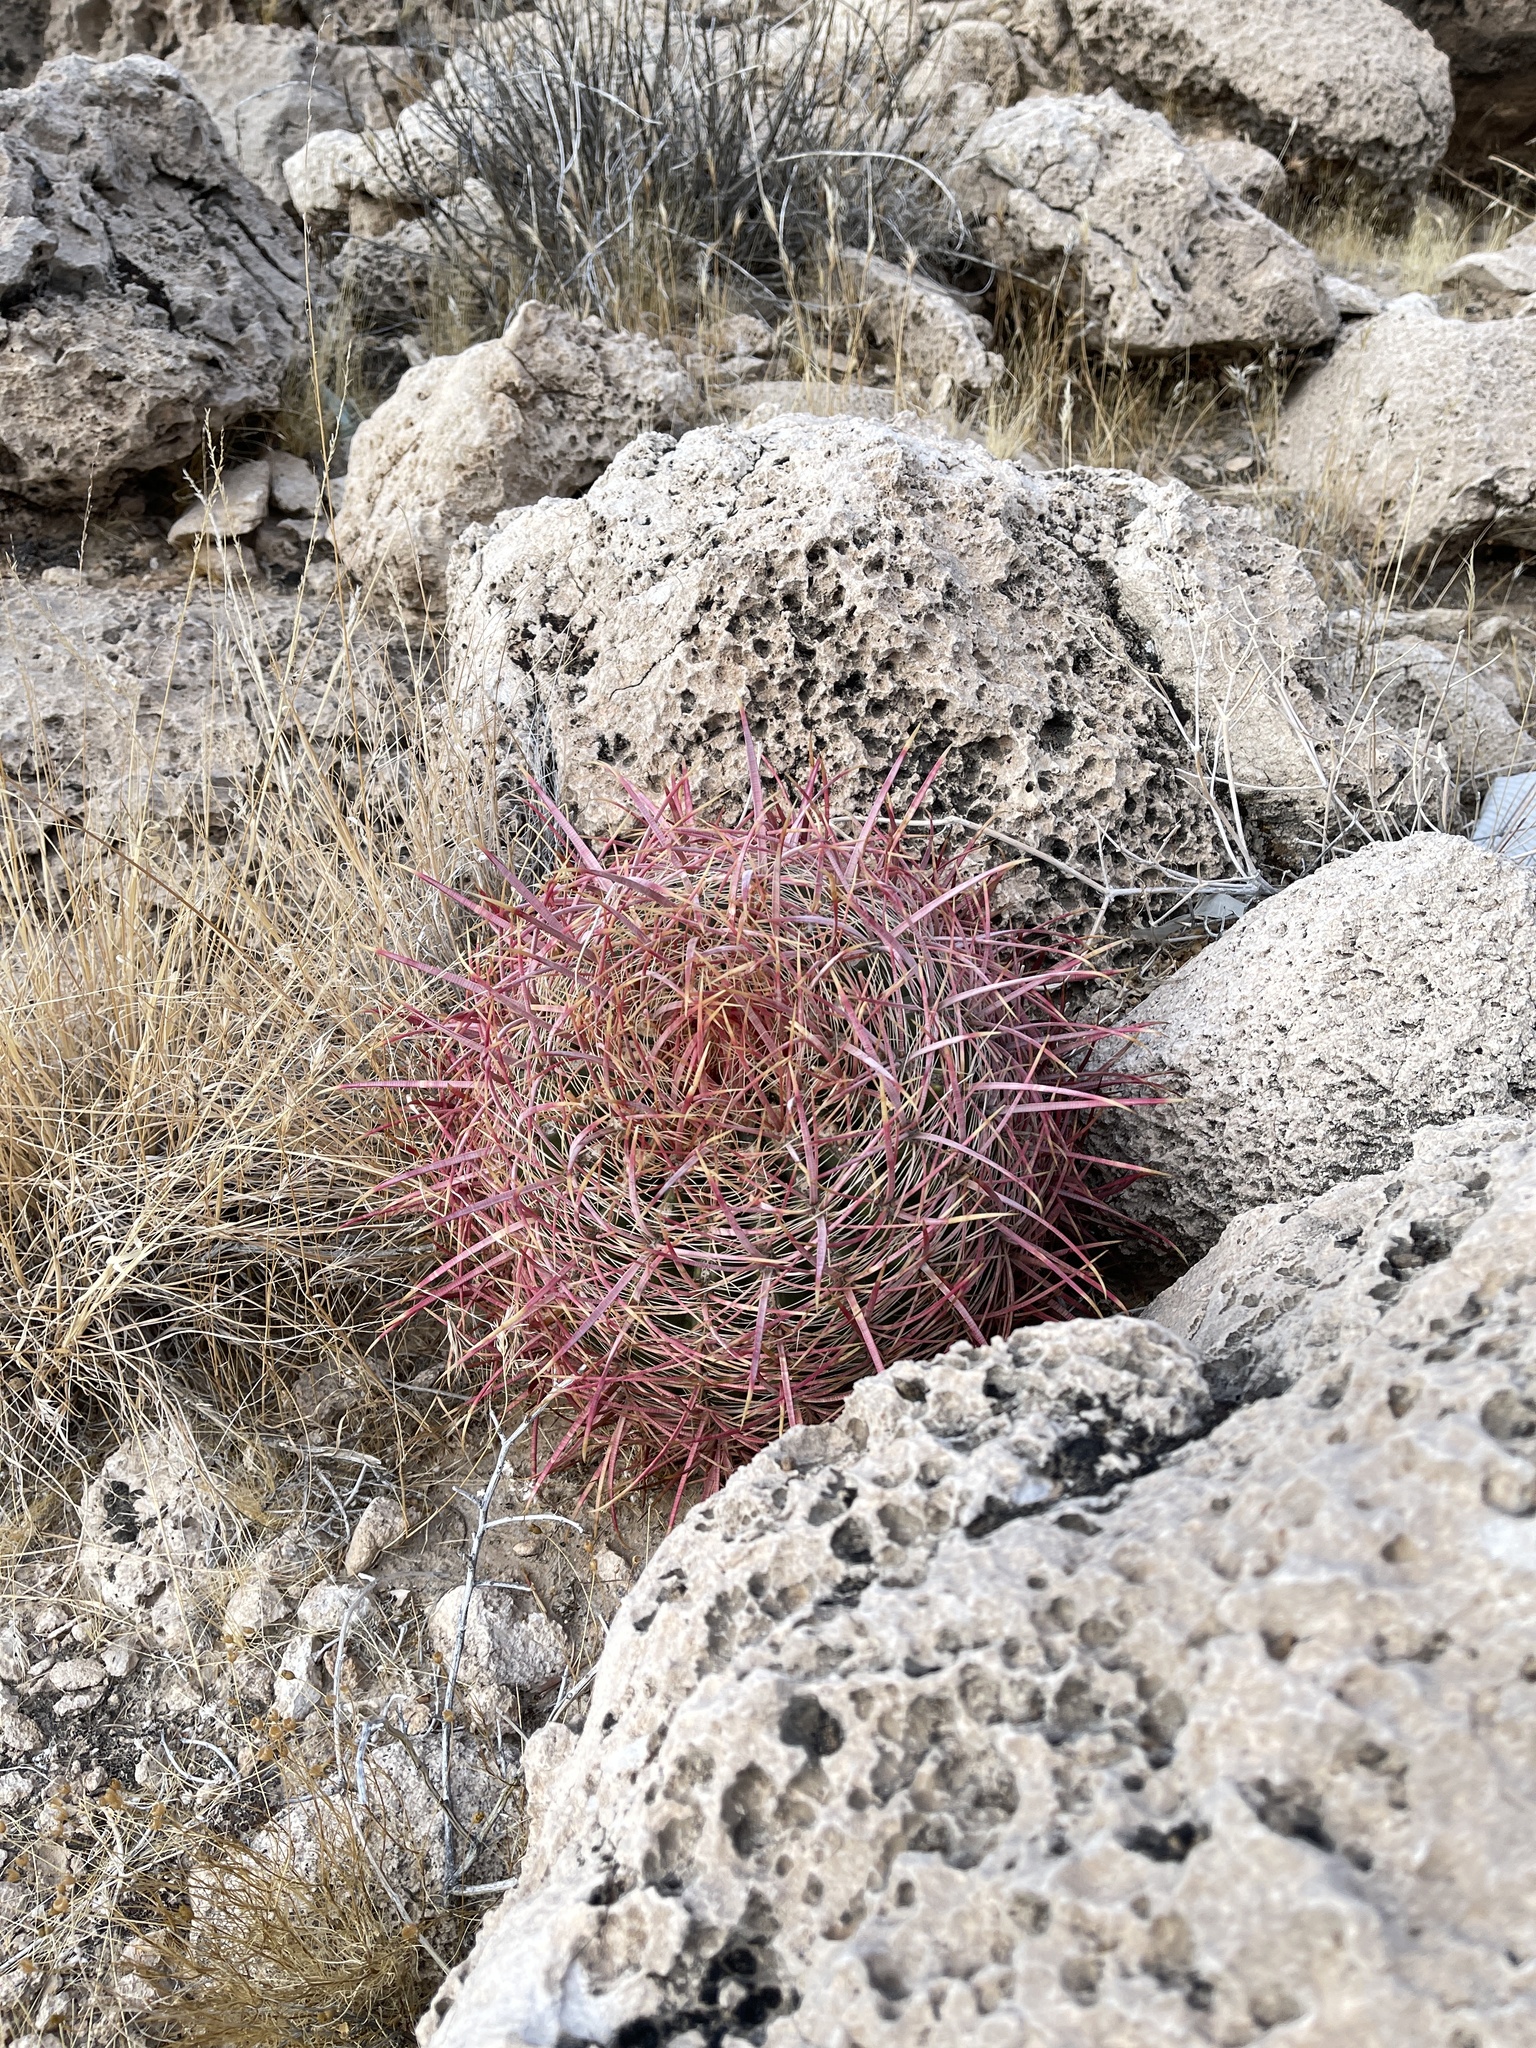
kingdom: Plantae
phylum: Tracheophyta
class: Magnoliopsida
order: Caryophyllales
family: Cactaceae
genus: Ferocactus
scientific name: Ferocactus cylindraceus
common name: California barrel cactus
